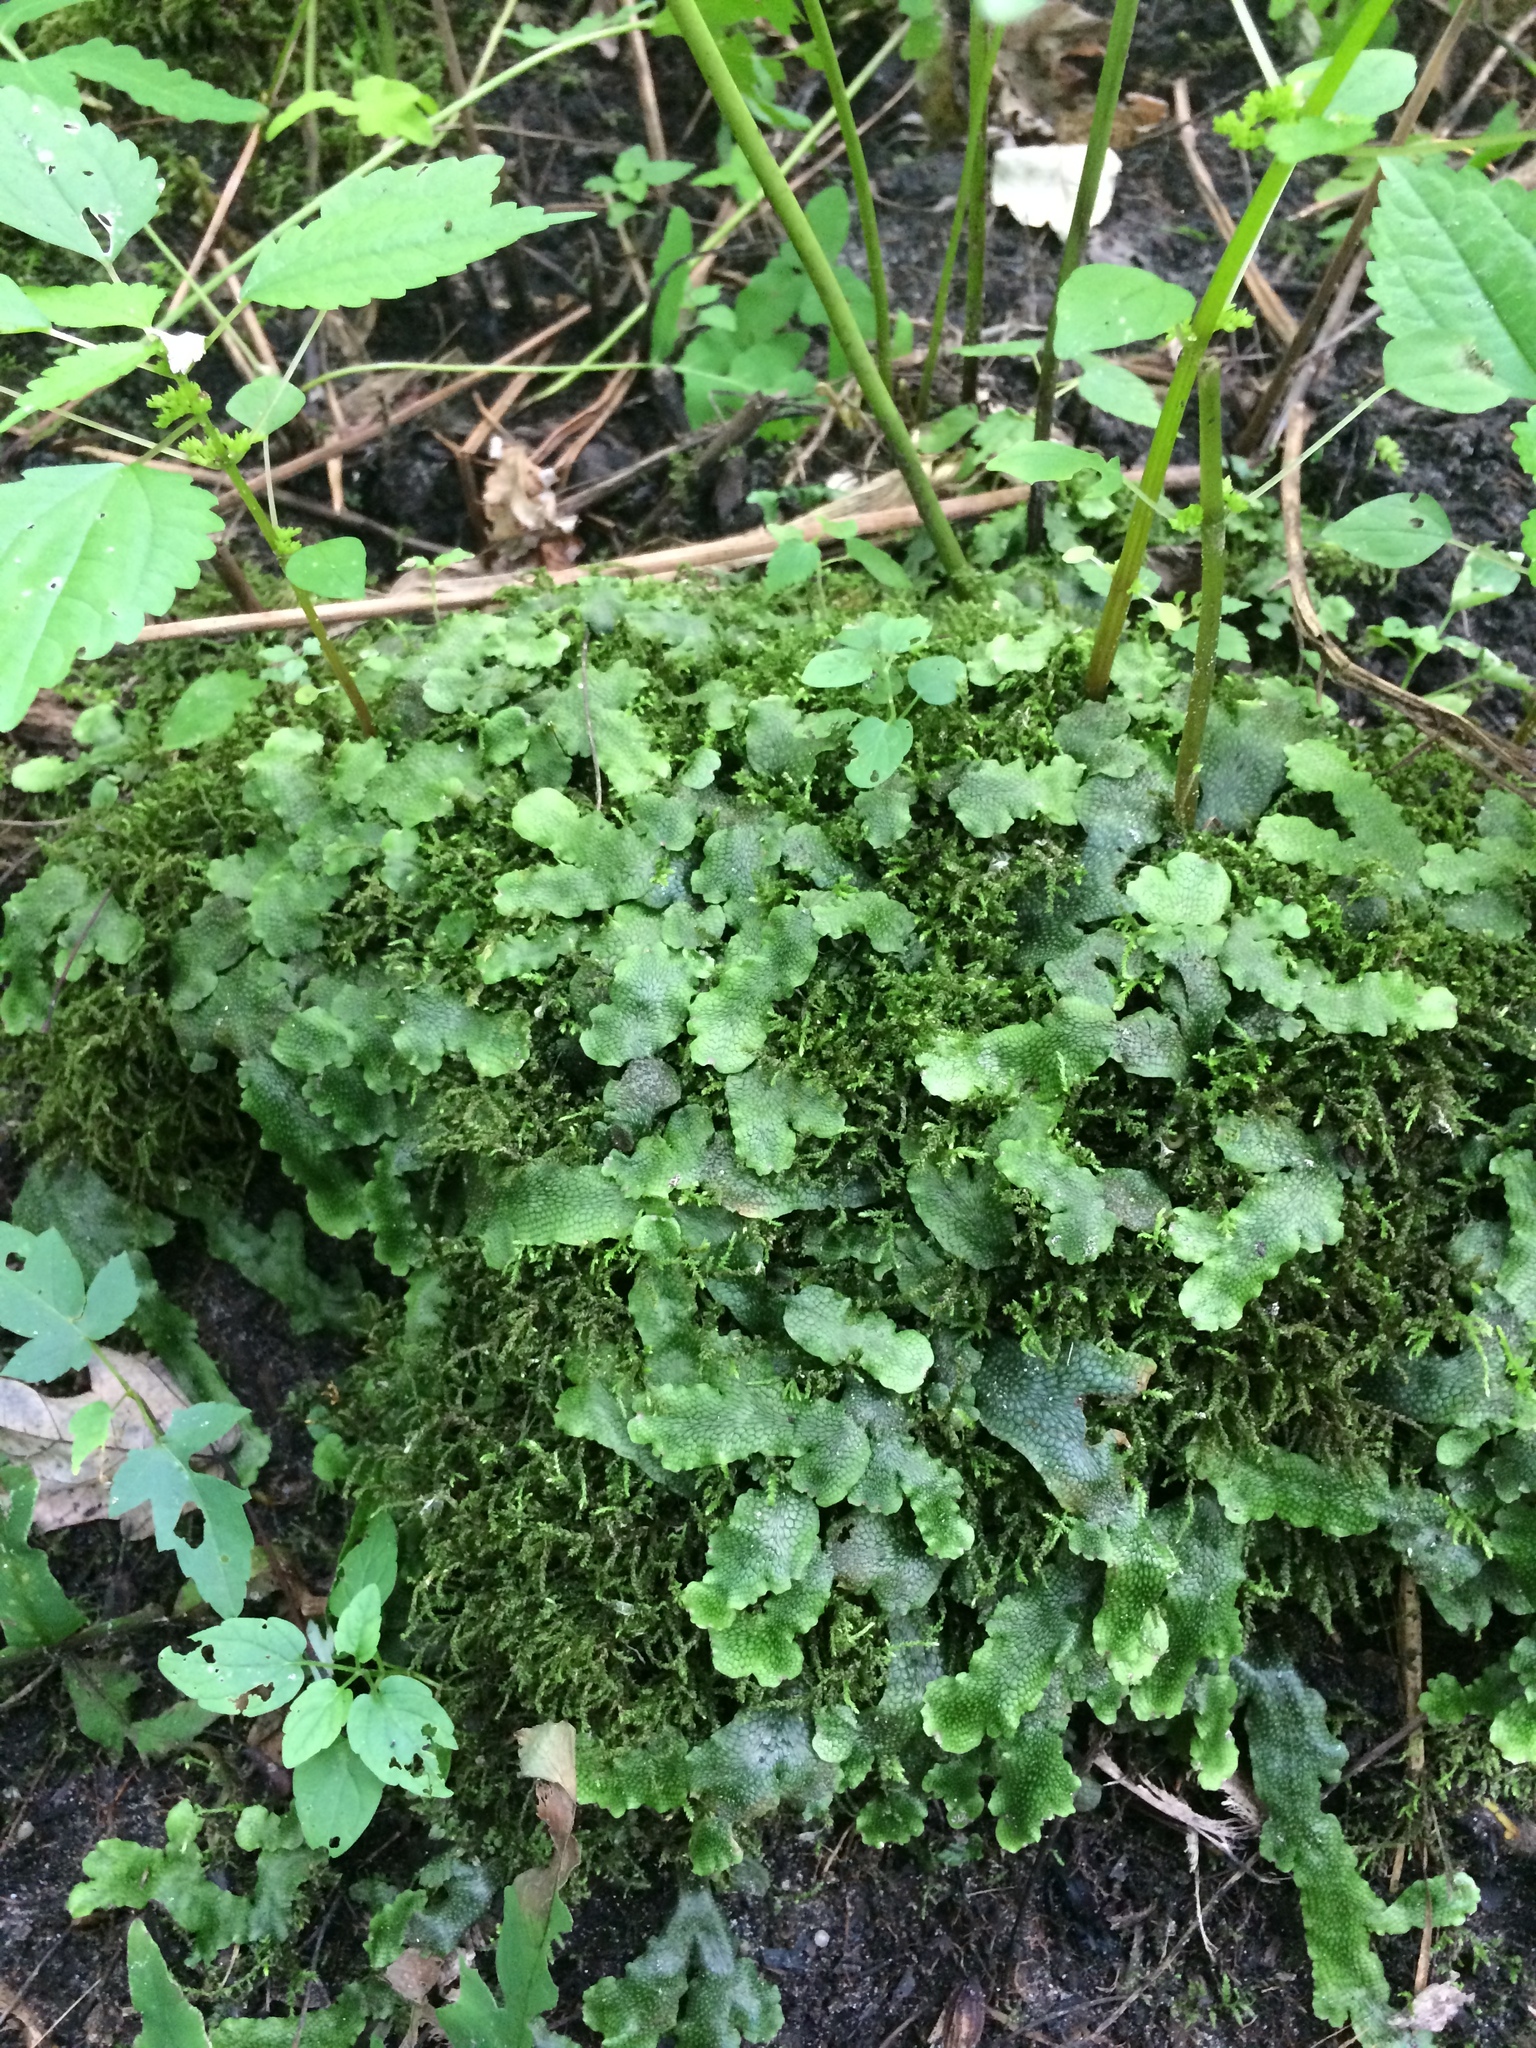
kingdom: Plantae
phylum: Marchantiophyta
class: Marchantiopsida
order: Marchantiales
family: Conocephalaceae
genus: Conocephalum
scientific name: Conocephalum salebrosum
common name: Cat-tongue liverwort
